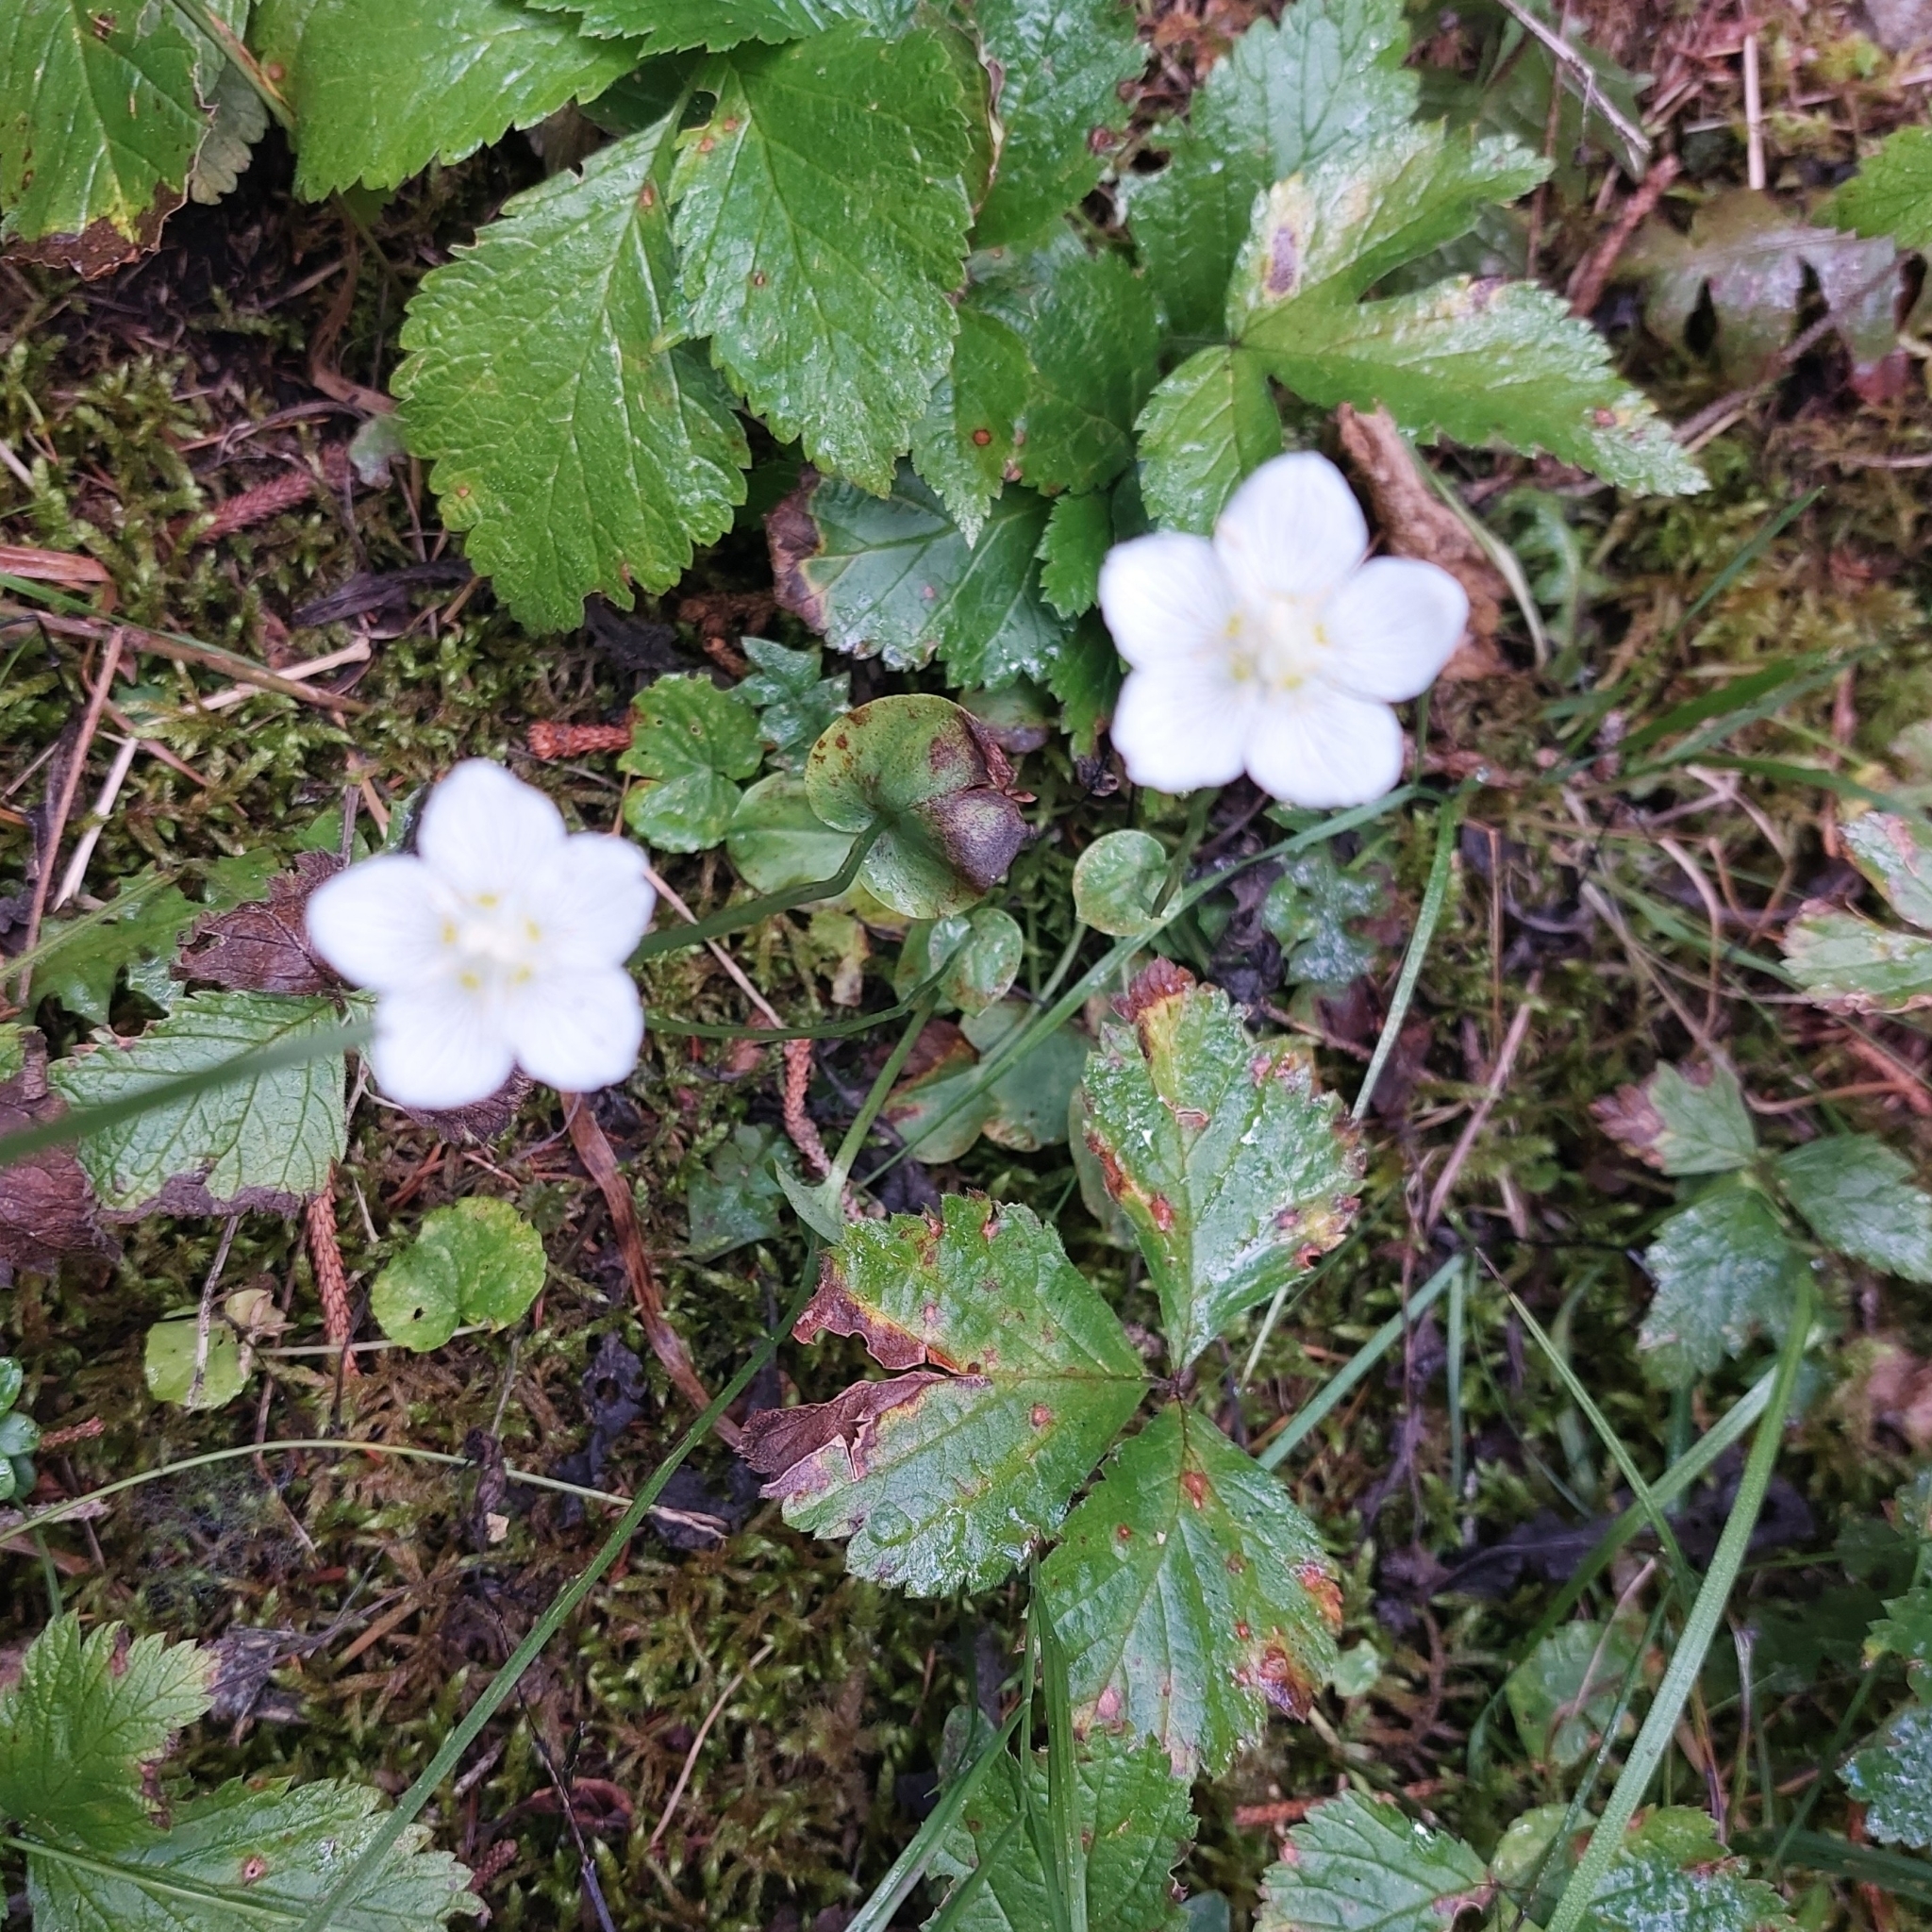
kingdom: Plantae
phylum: Tracheophyta
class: Magnoliopsida
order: Celastrales
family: Parnassiaceae
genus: Parnassia
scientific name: Parnassia palustris
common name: Grass-of-parnassus
